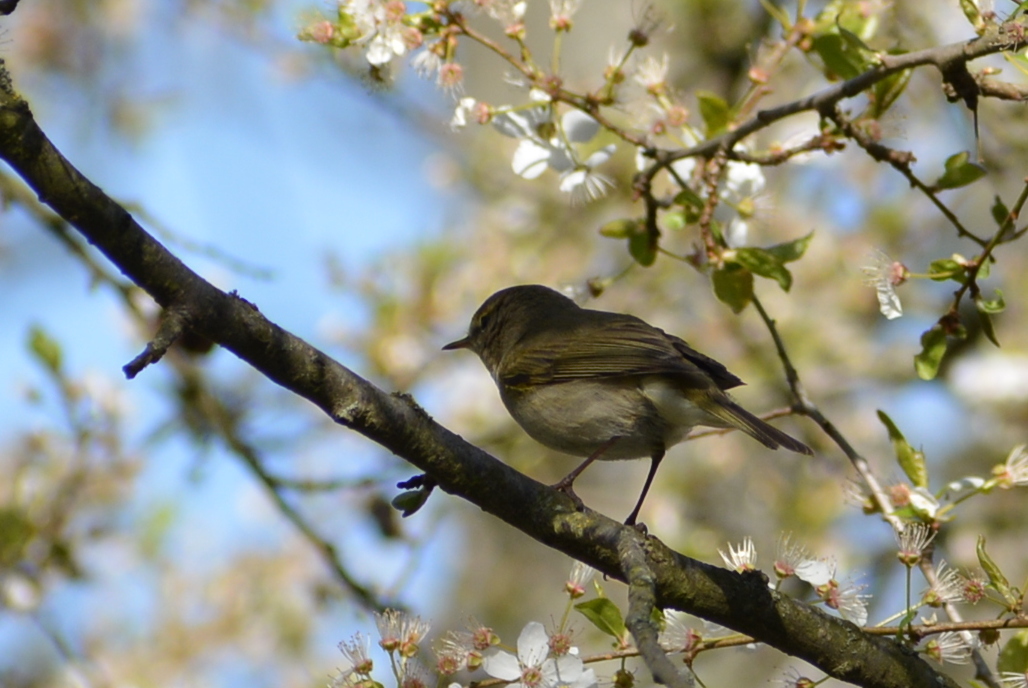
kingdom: Animalia
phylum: Chordata
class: Aves
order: Passeriformes
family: Phylloscopidae
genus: Phylloscopus
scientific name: Phylloscopus collybita
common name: Common chiffchaff
